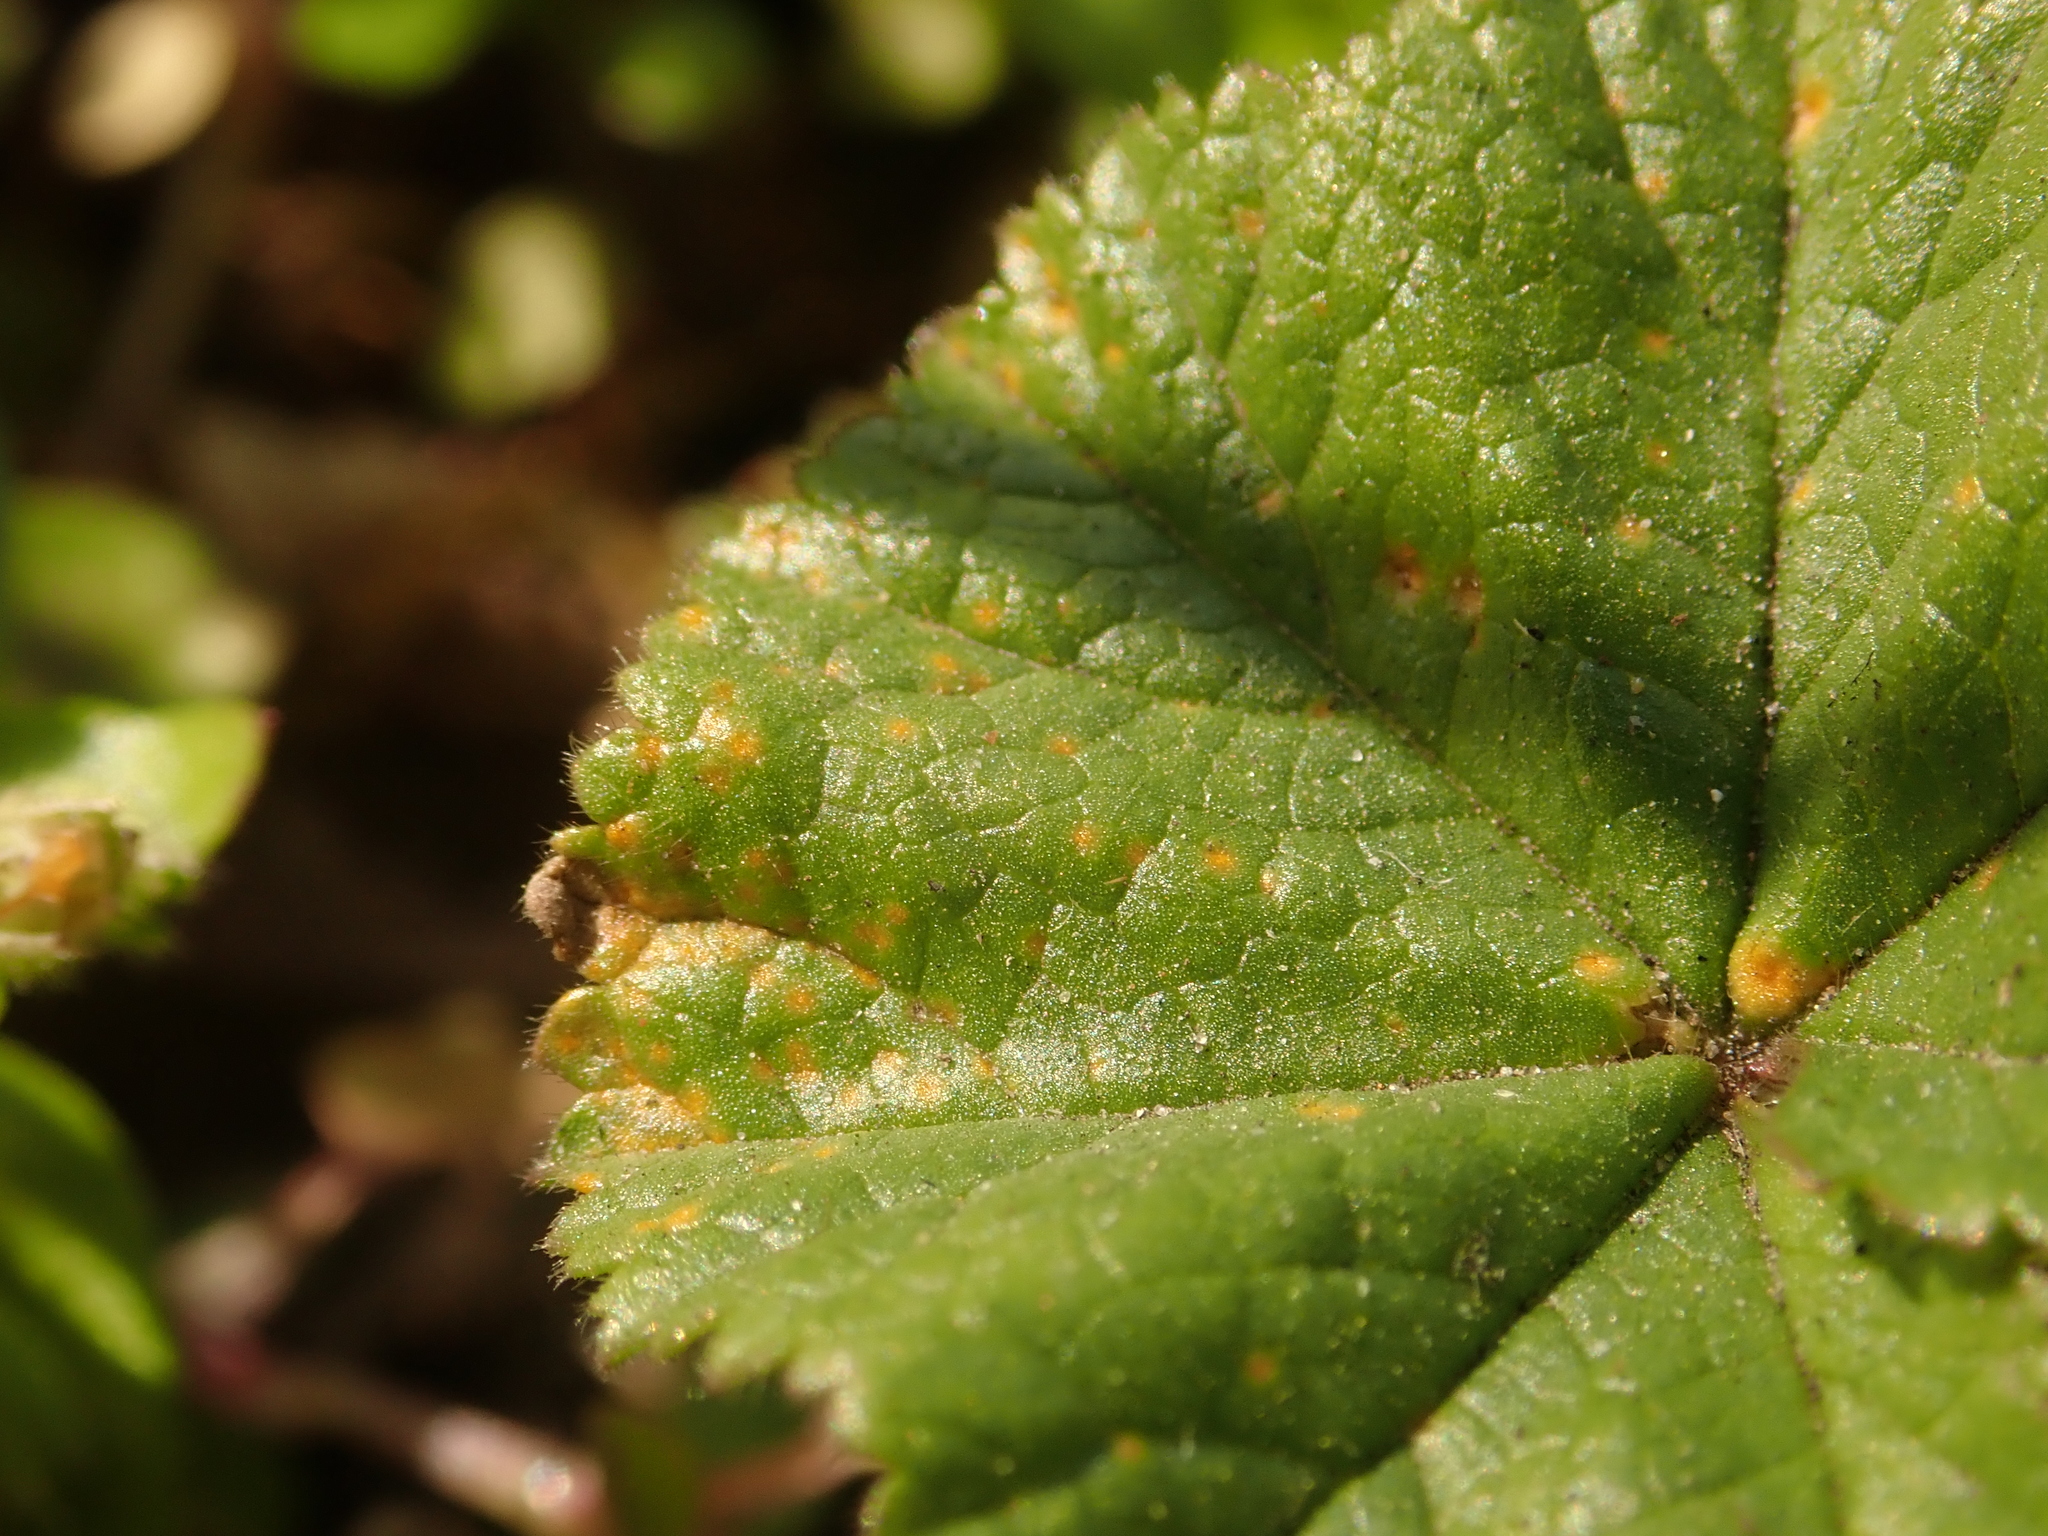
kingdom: Fungi
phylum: Basidiomycota
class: Pucciniomycetes
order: Pucciniales
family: Pucciniaceae
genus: Puccinia
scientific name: Puccinia malvacearum
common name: Hollyhock rust
